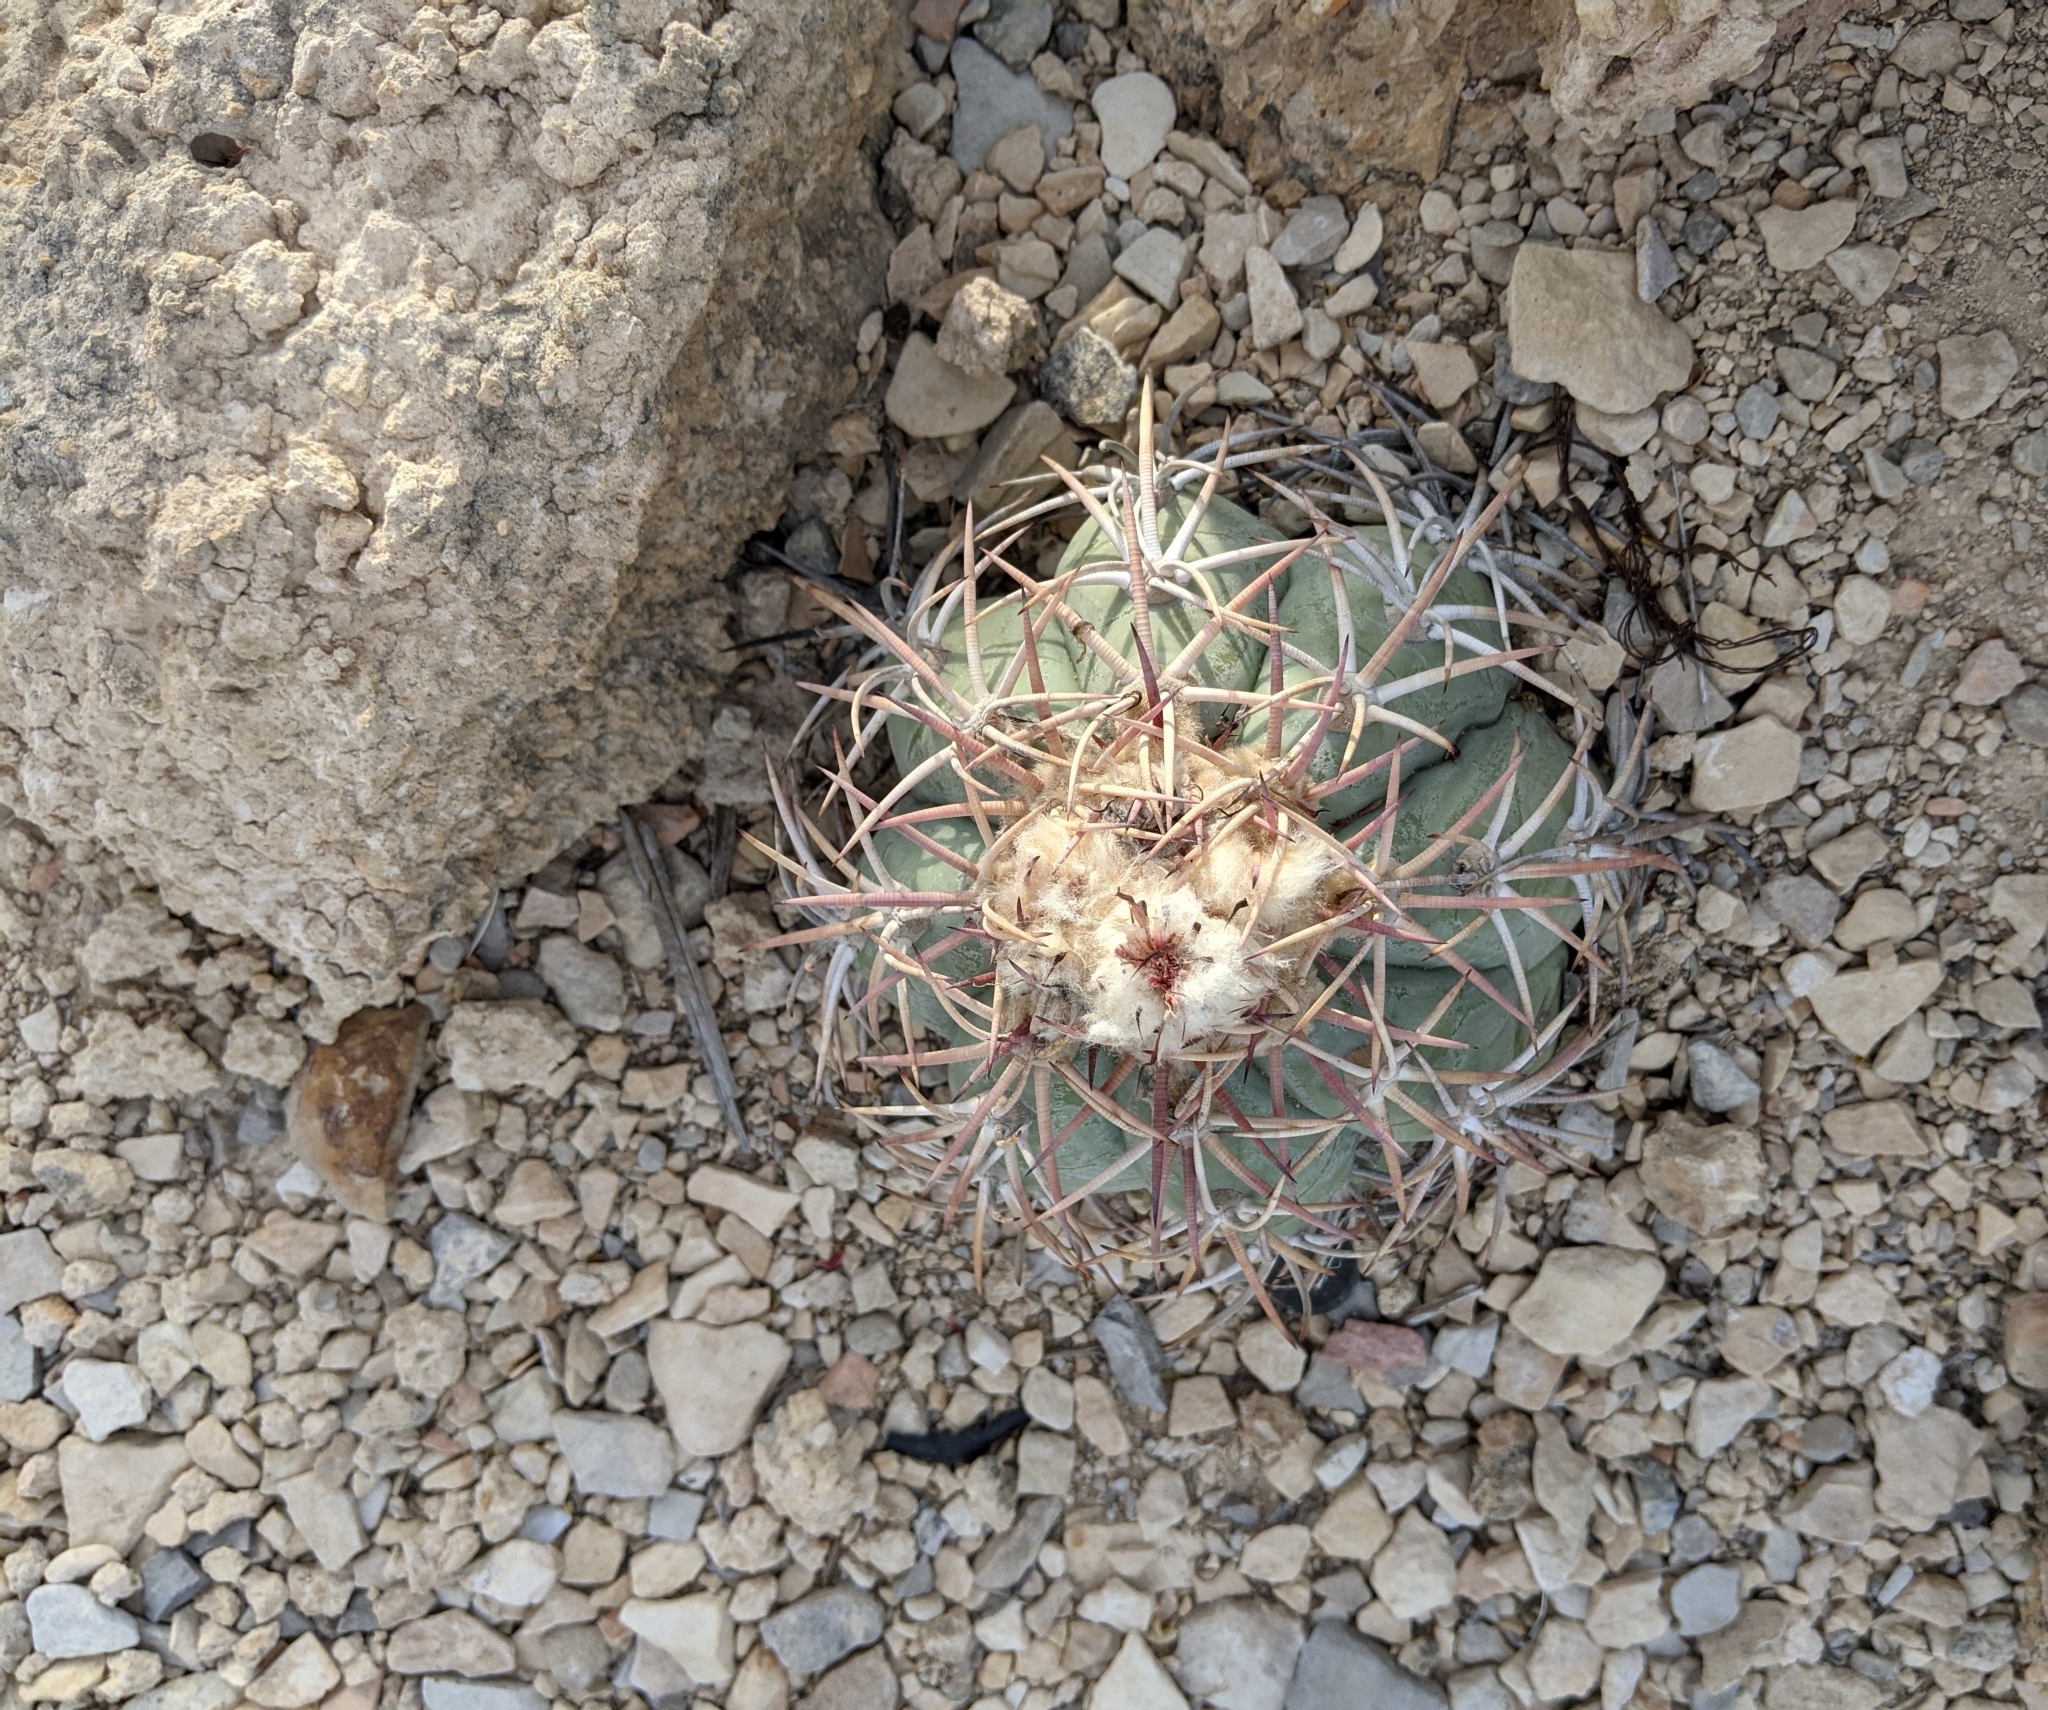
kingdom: Plantae
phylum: Tracheophyta
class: Magnoliopsida
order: Caryophyllales
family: Cactaceae
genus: Echinocactus
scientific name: Echinocactus horizonthalonius
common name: Devilshead
